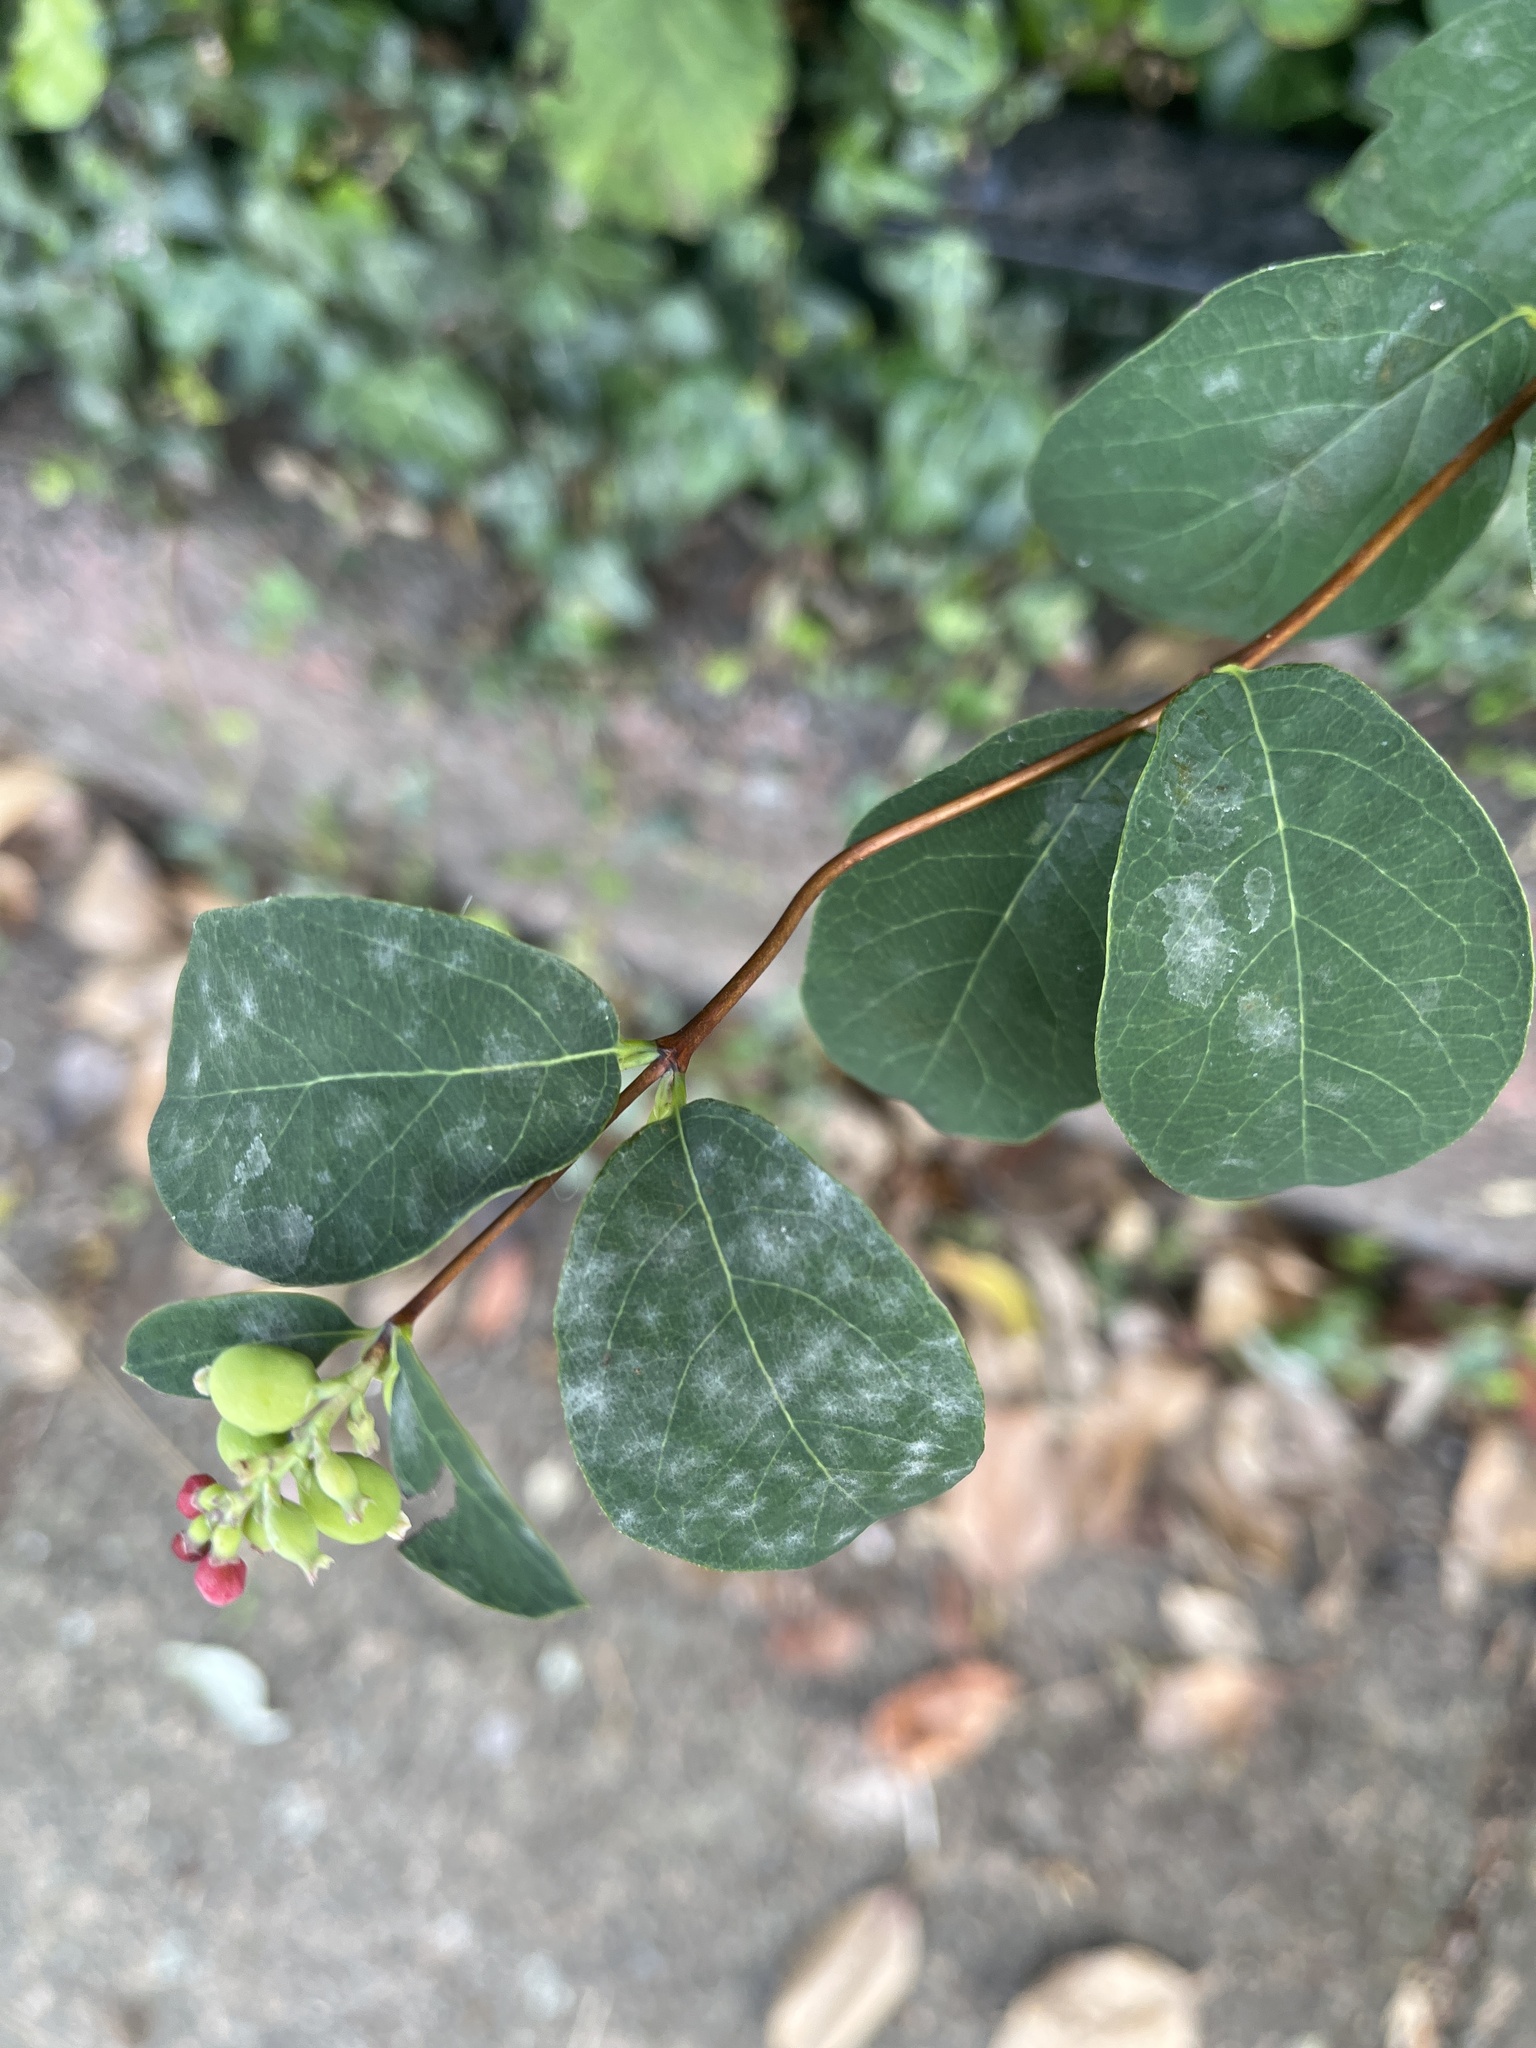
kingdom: Fungi
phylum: Ascomycota
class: Leotiomycetes
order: Helotiales
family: Erysiphaceae
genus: Erysiphe
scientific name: Erysiphe symphoricarpi
